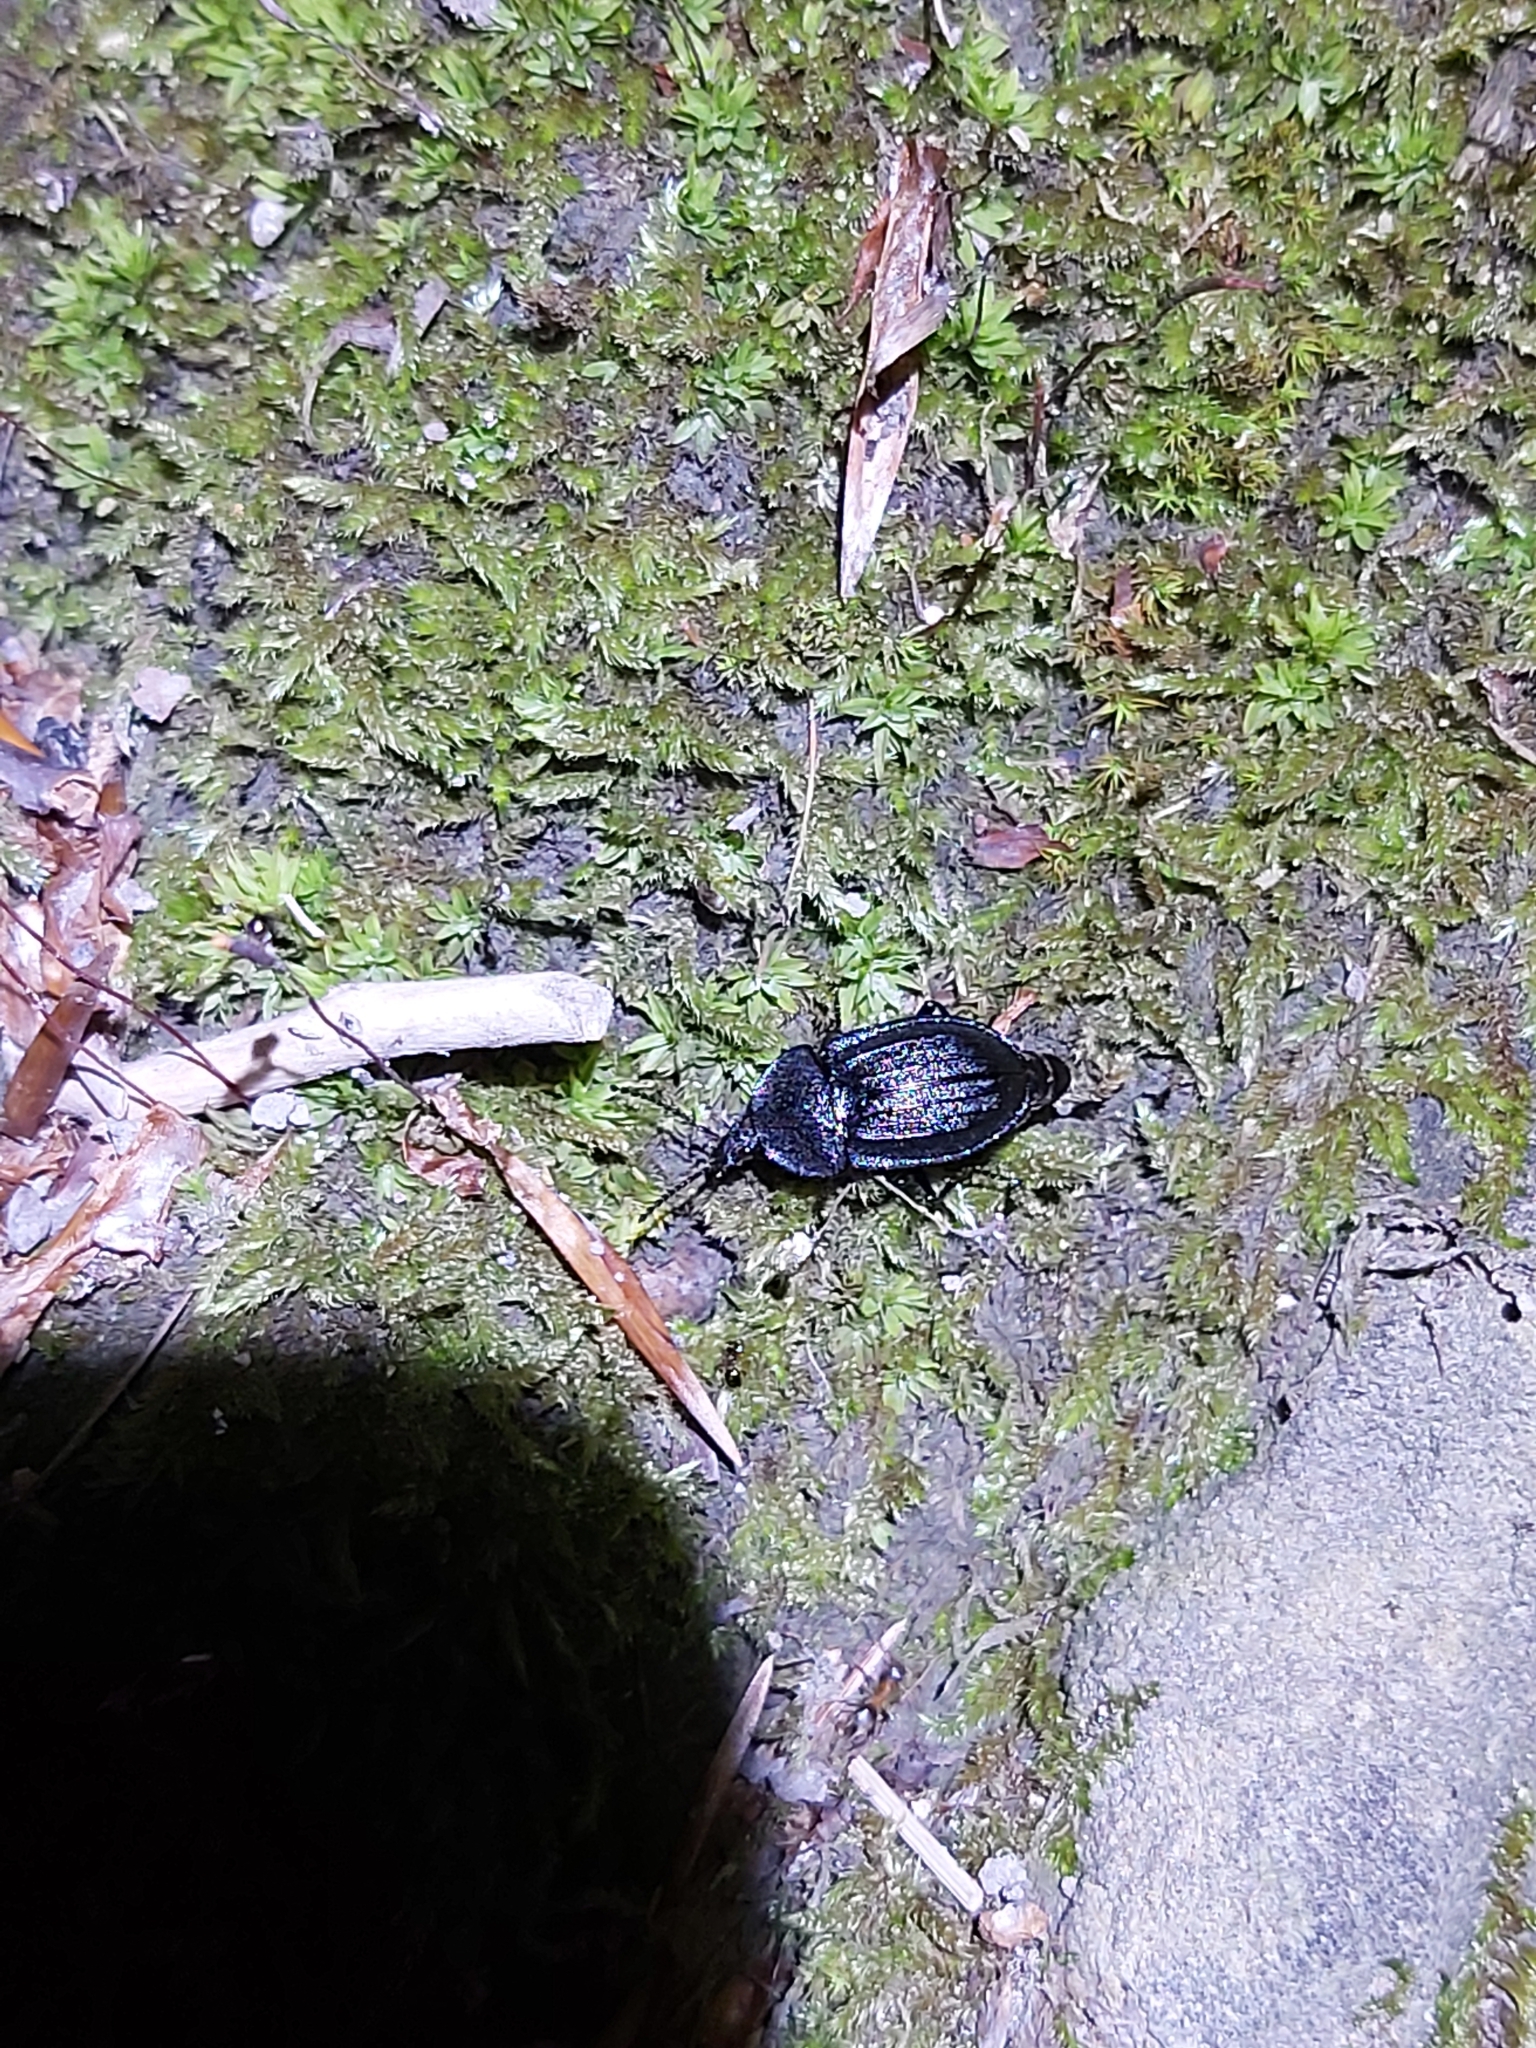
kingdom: Animalia
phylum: Arthropoda
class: Insecta
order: Coleoptera
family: Staphylinidae
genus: Silpha
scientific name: Silpha atrata
